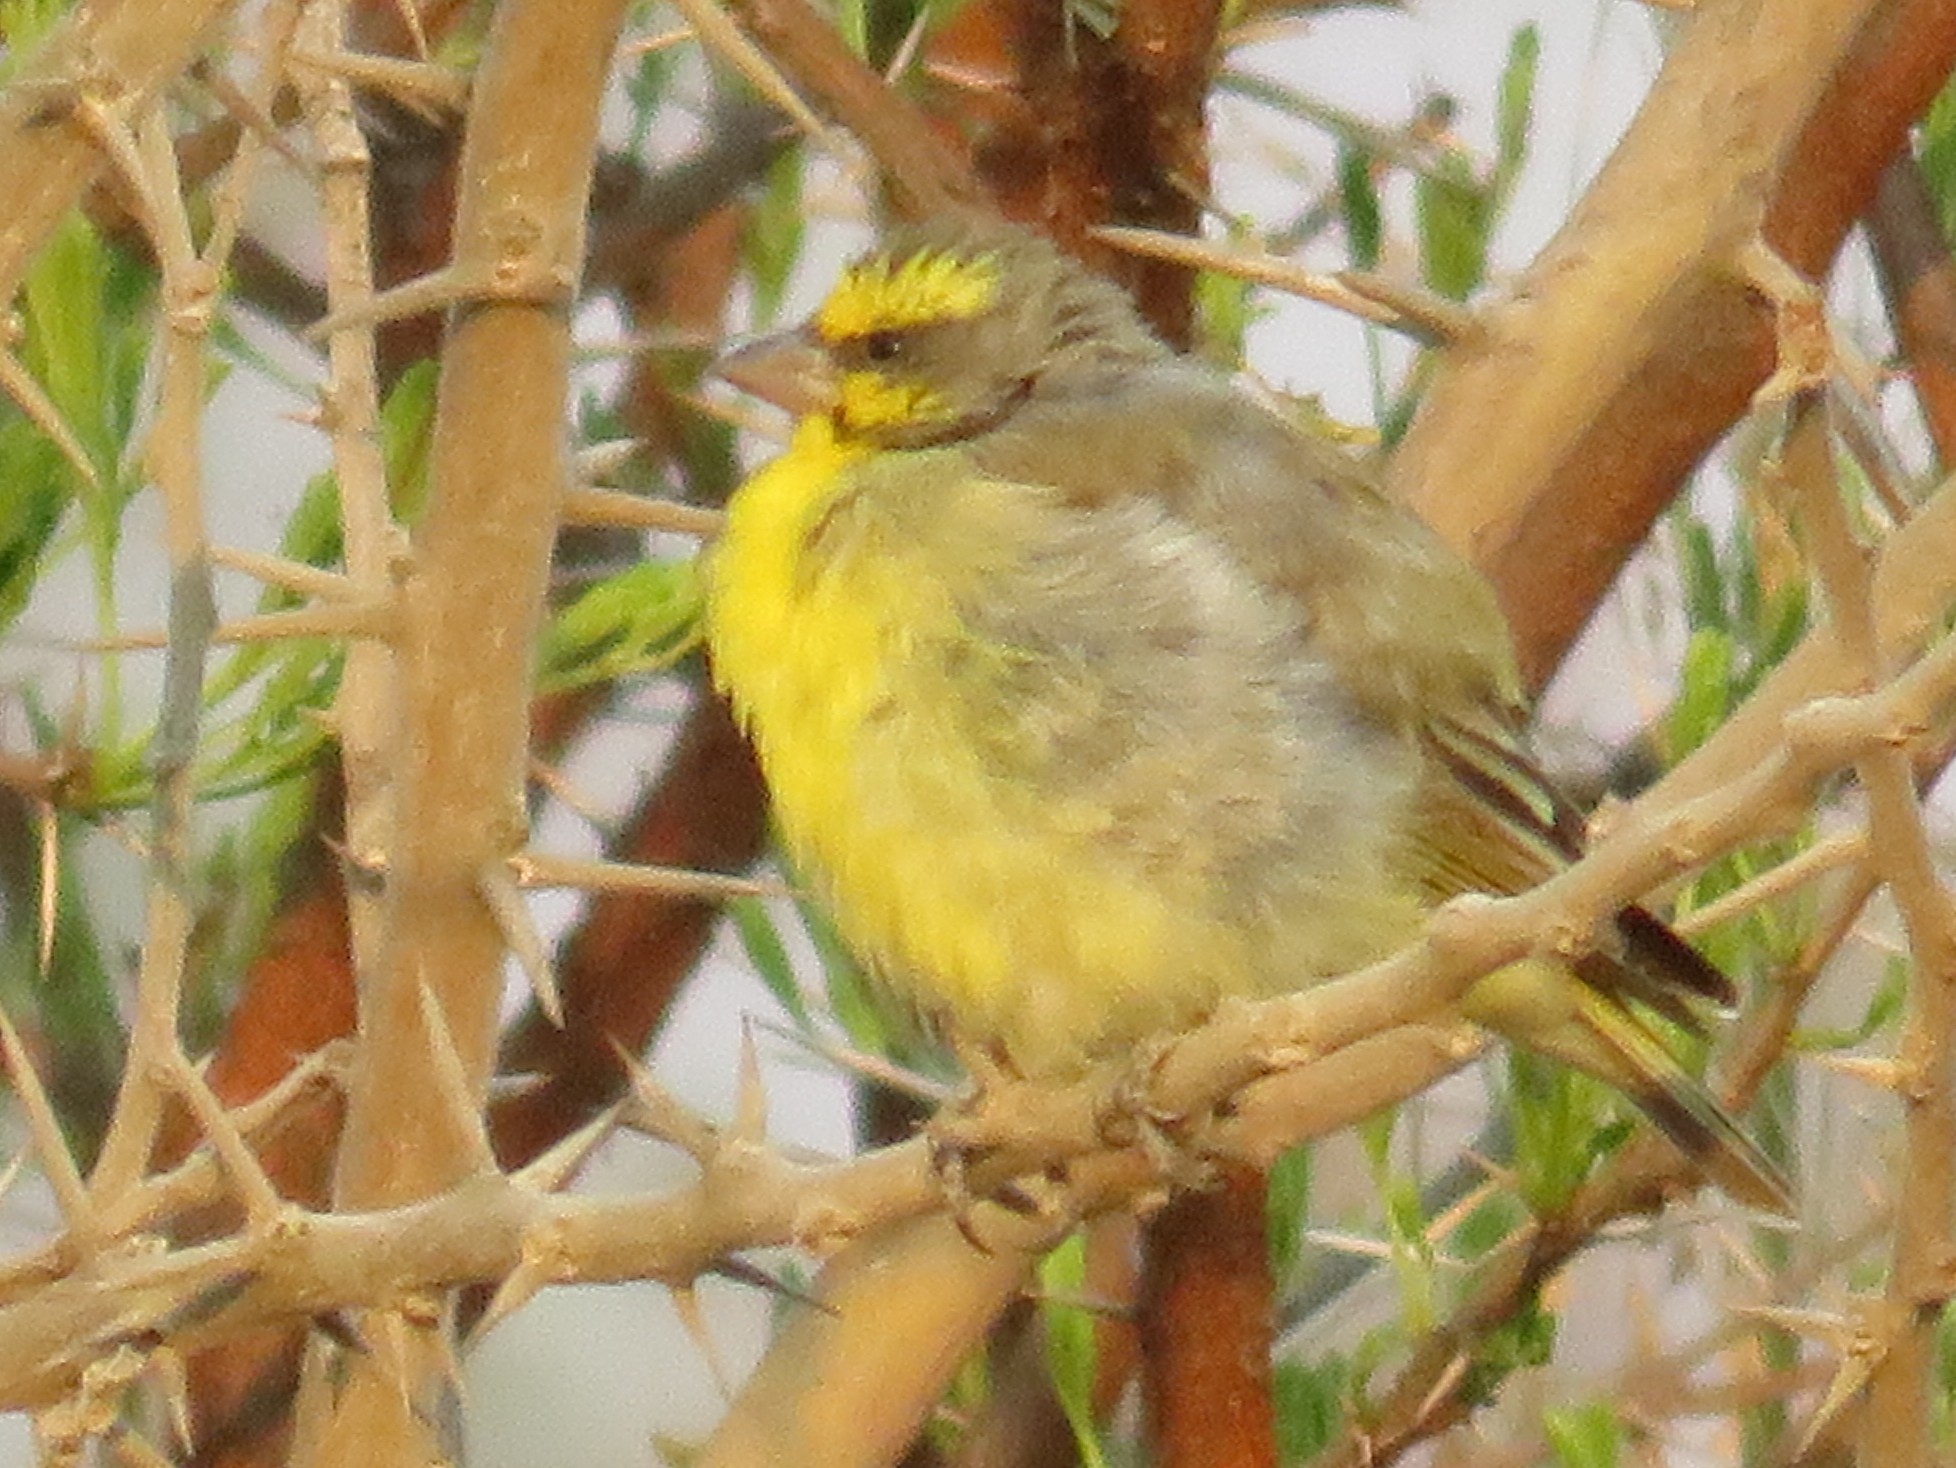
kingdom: Animalia
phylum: Chordata
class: Aves
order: Passeriformes
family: Fringillidae
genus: Crithagra
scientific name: Crithagra mozambica
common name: Yellow-fronted canary
